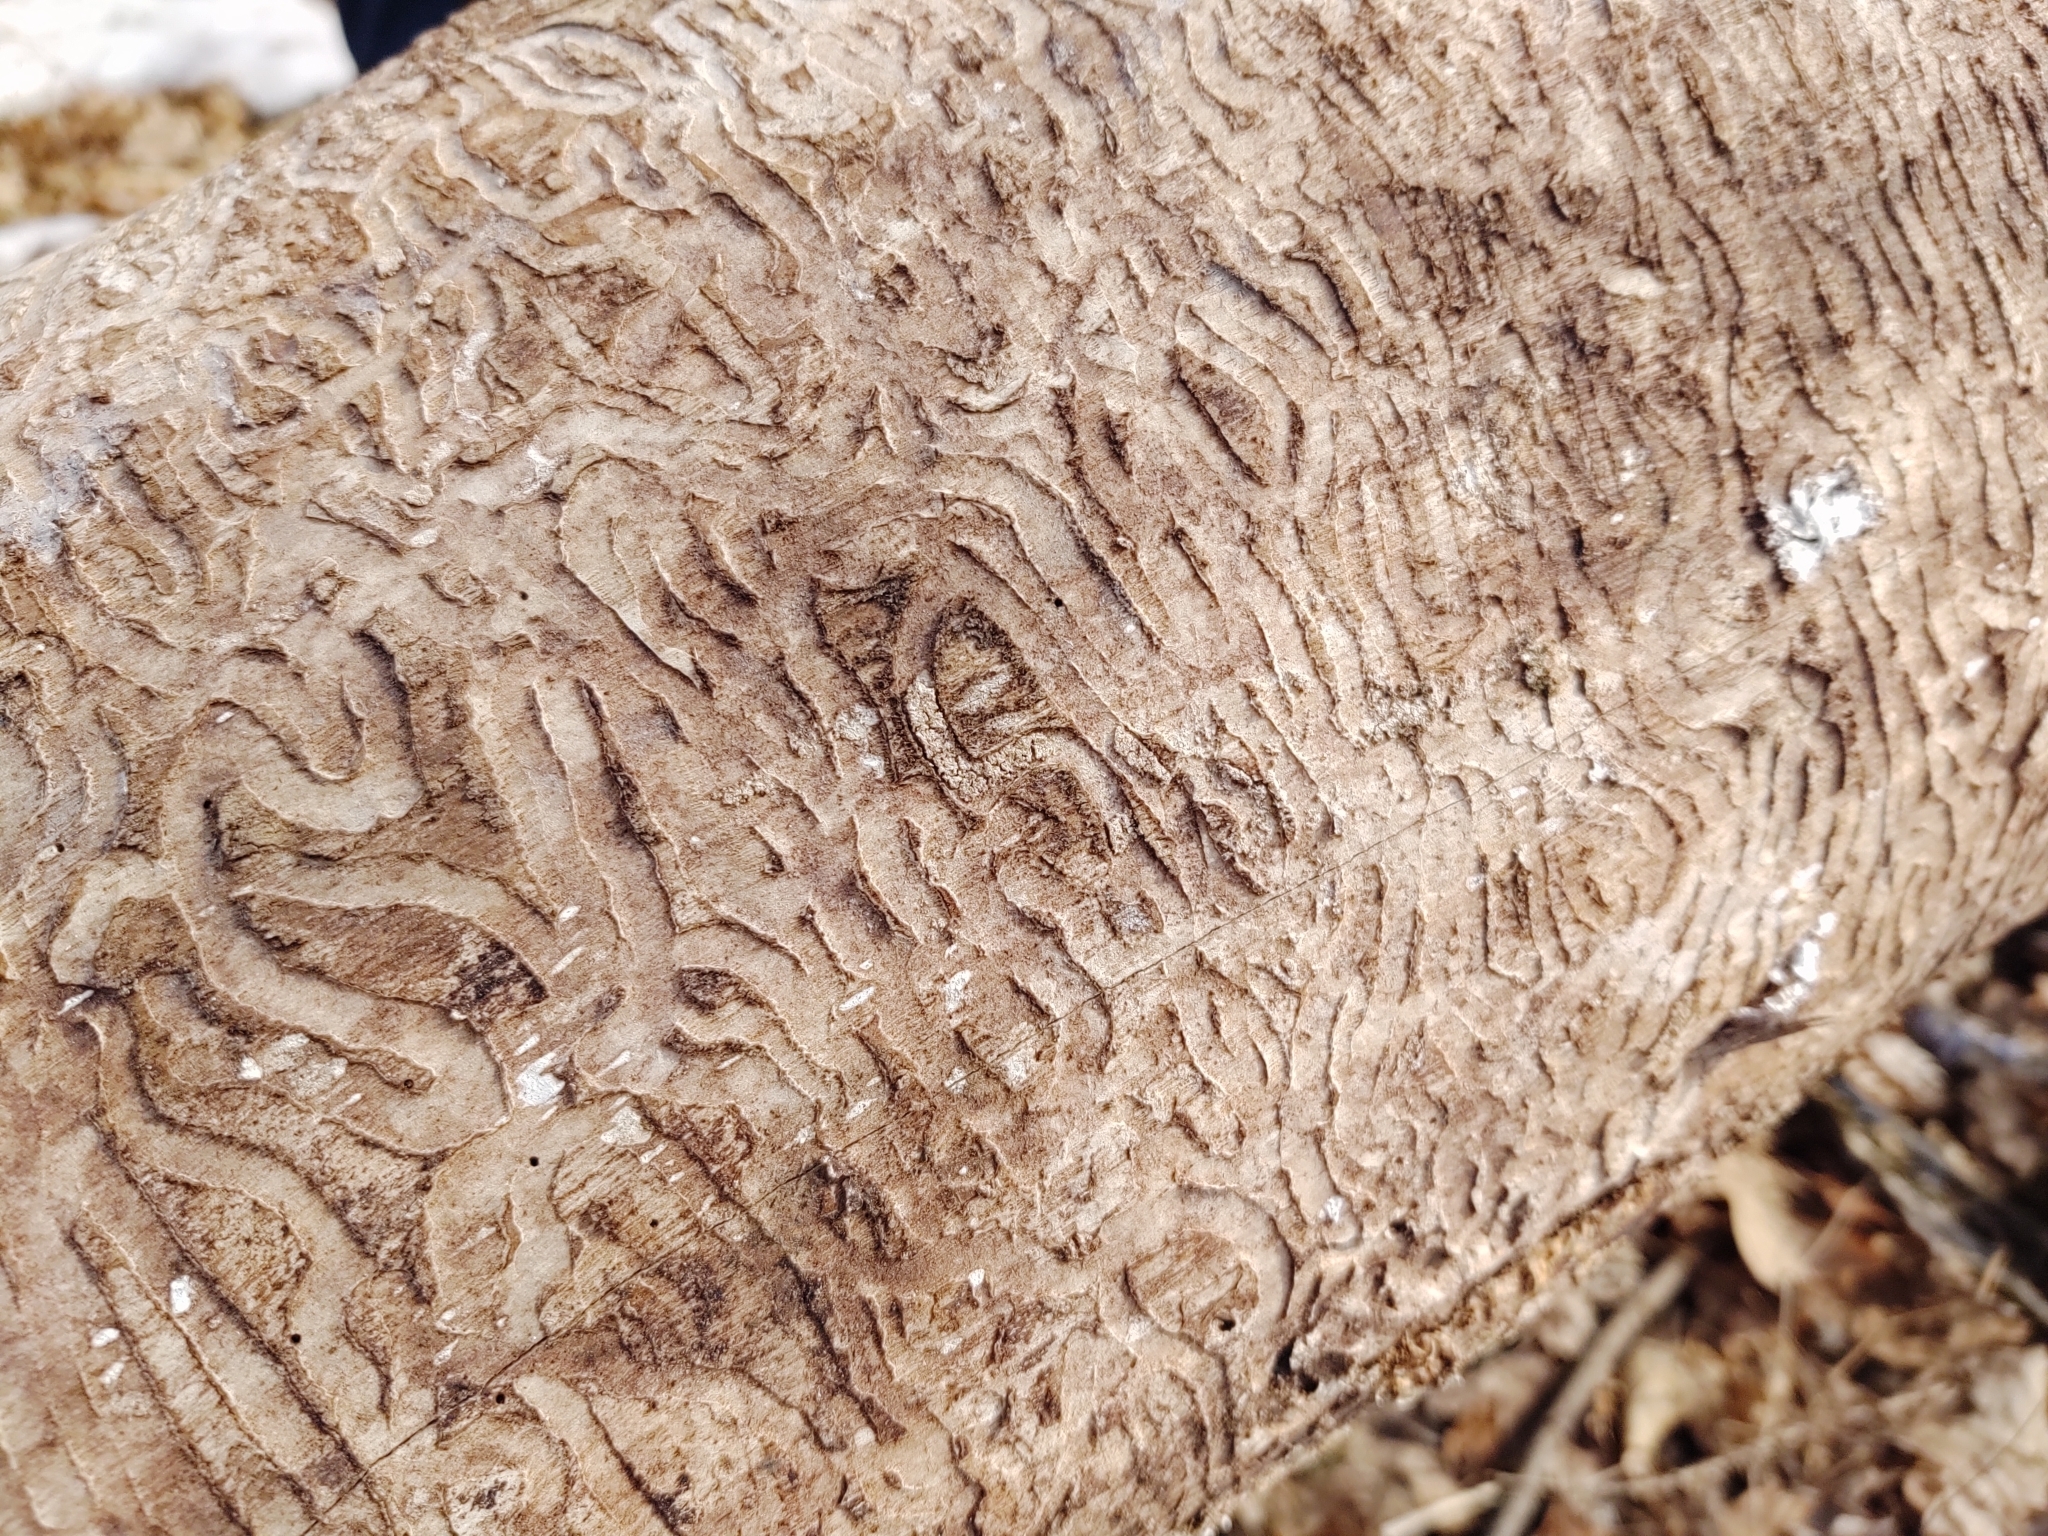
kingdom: Animalia
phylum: Arthropoda
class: Insecta
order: Coleoptera
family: Buprestidae
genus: Agrilus
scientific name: Agrilus planipennis
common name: Emerald ash borer
